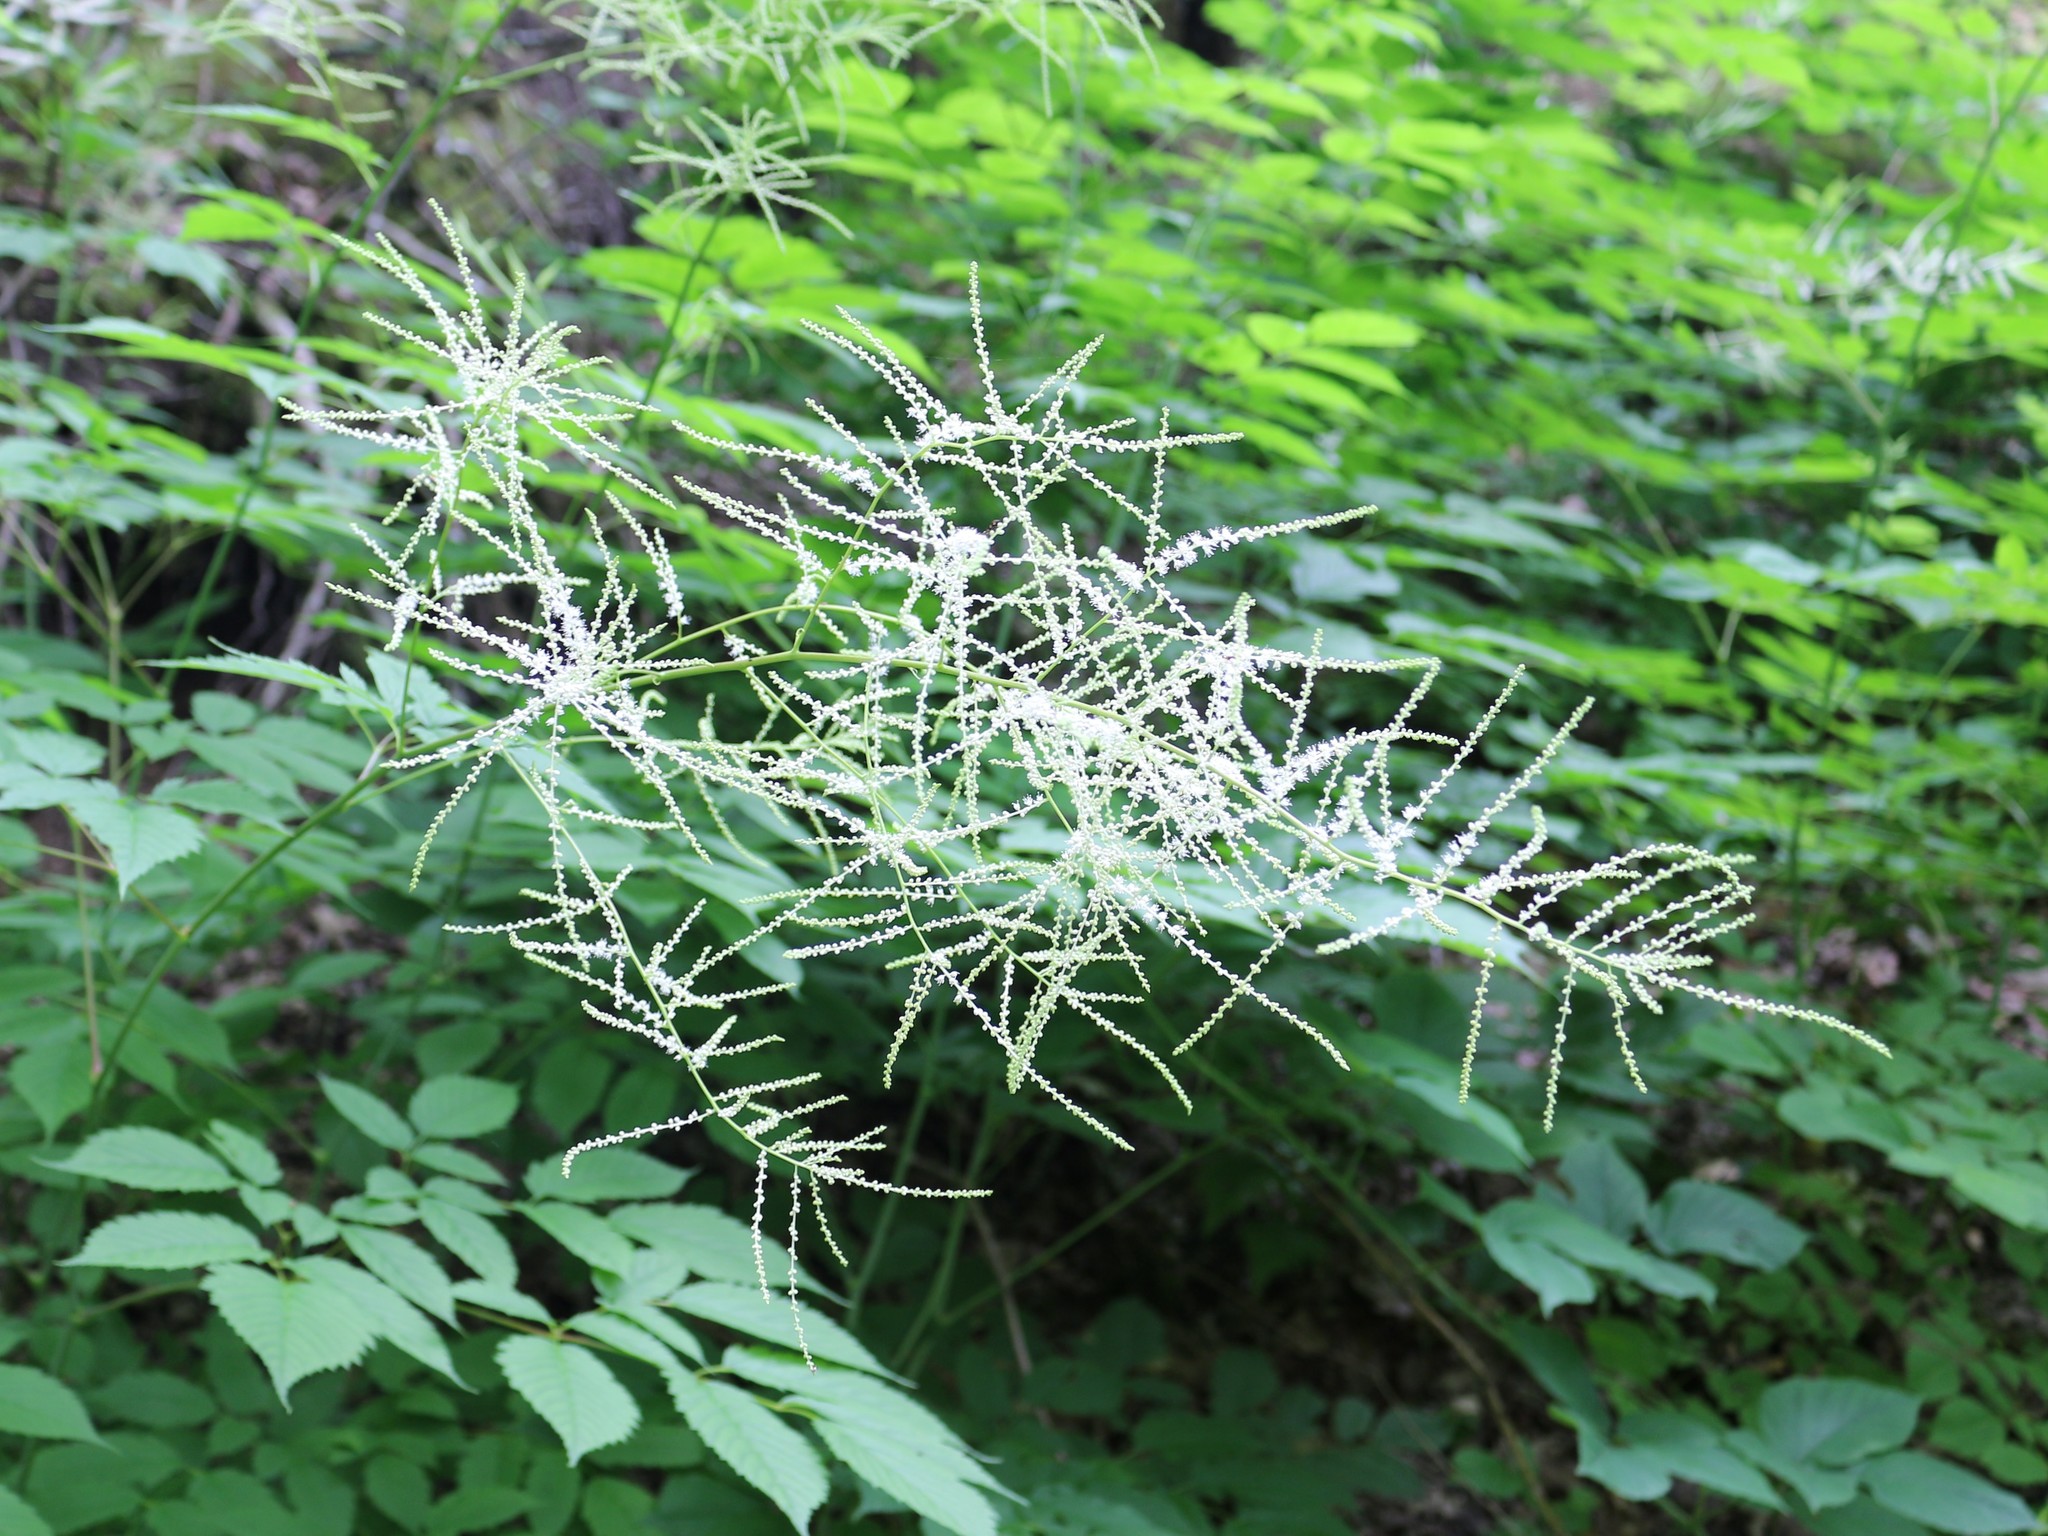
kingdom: Plantae
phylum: Tracheophyta
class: Magnoliopsida
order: Rosales
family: Rosaceae
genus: Aruncus
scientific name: Aruncus sylvester
